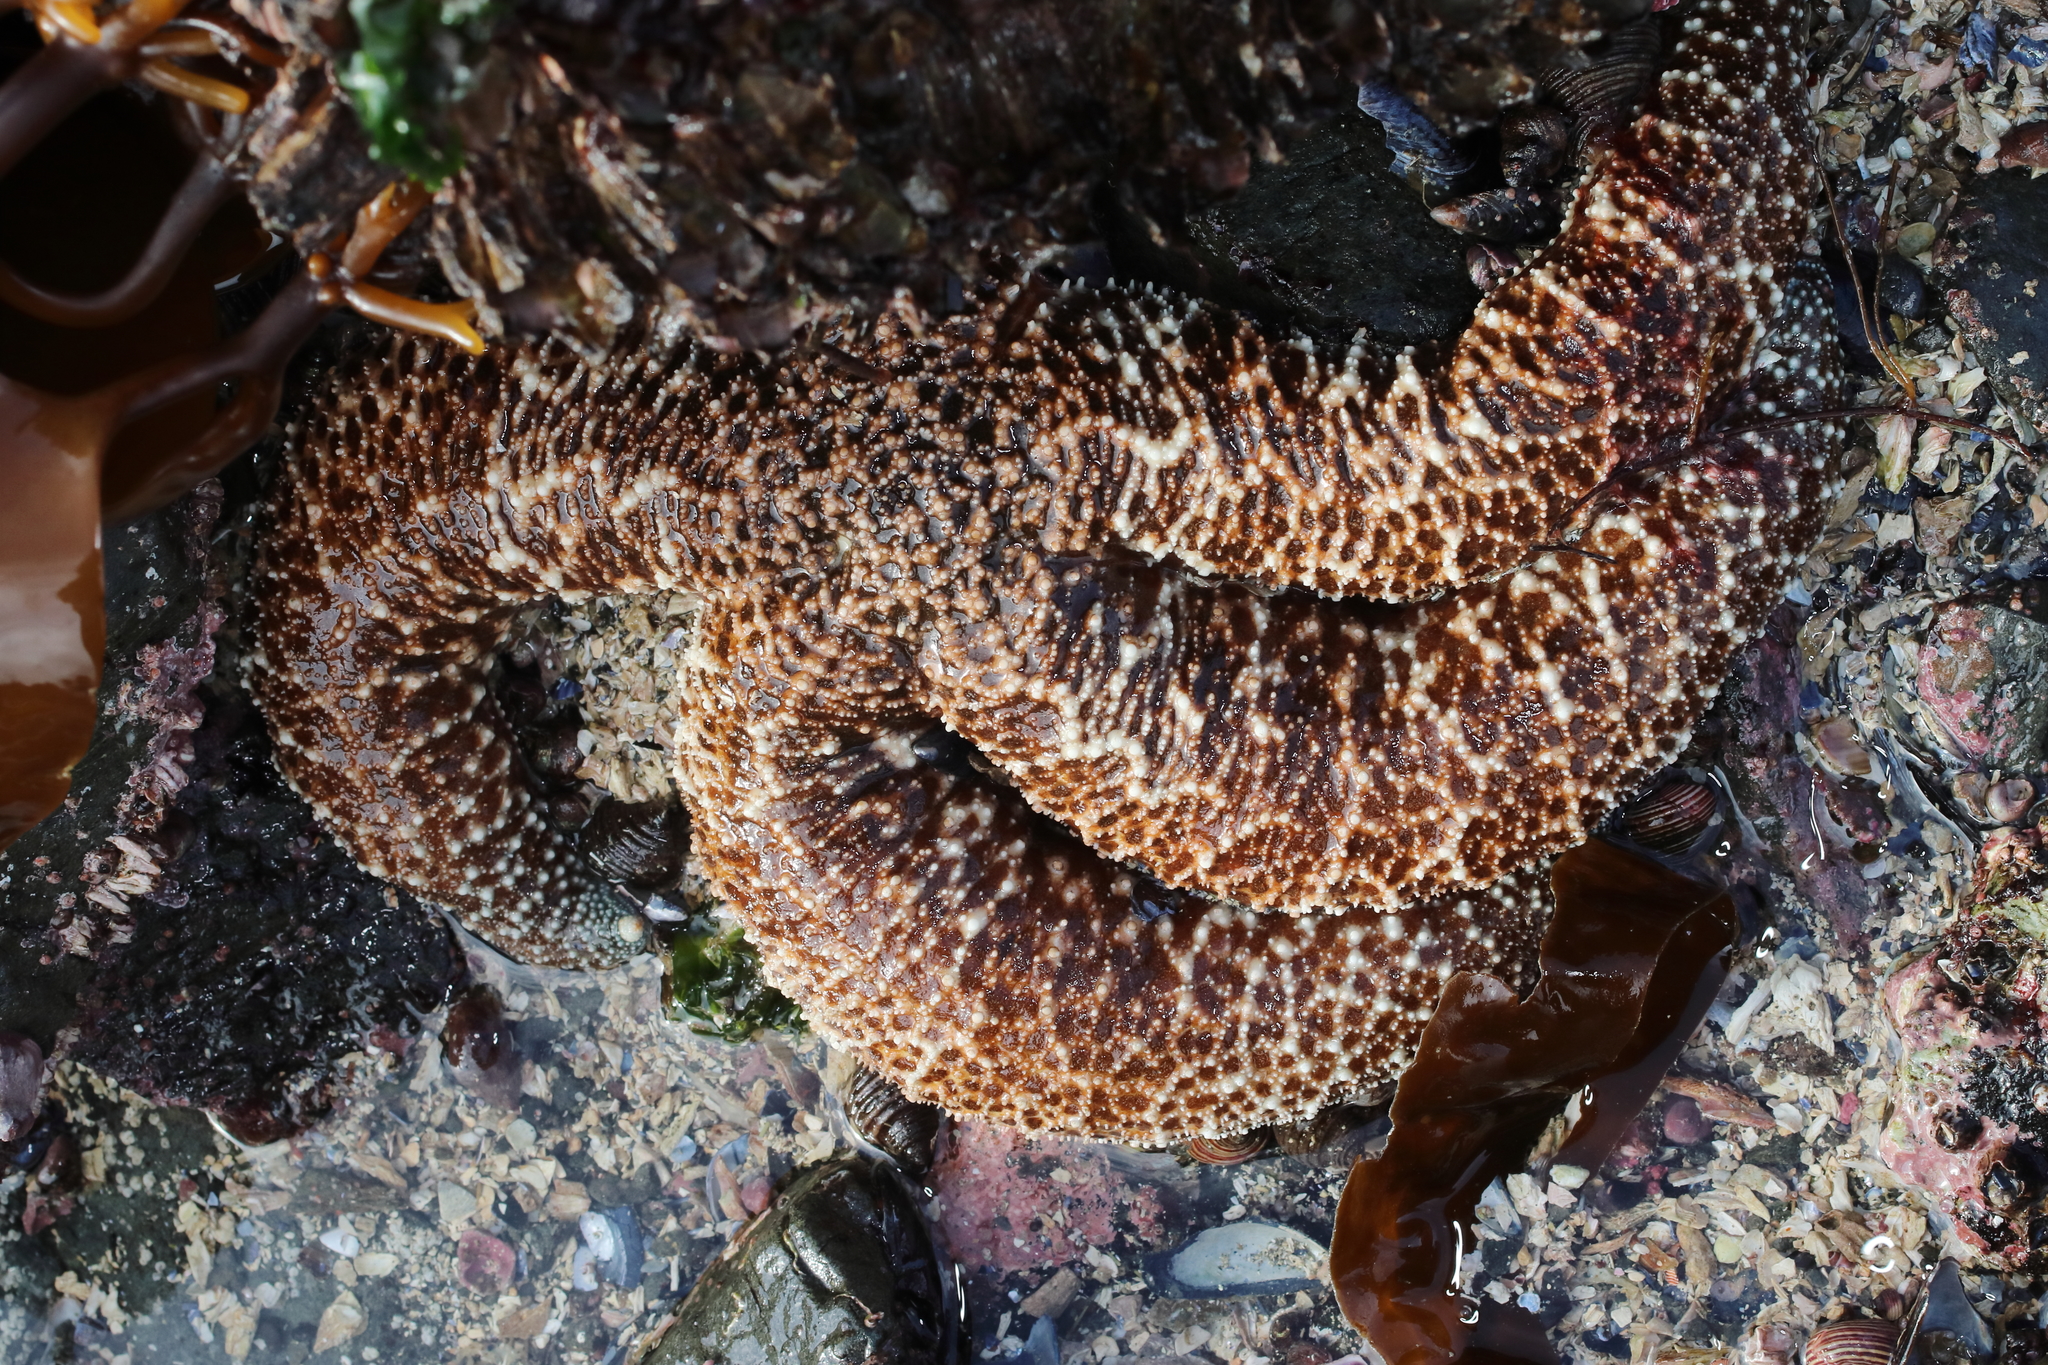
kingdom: Animalia
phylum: Echinodermata
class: Asteroidea
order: Forcipulatida
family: Asteriidae
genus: Evasterias
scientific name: Evasterias troschelii
